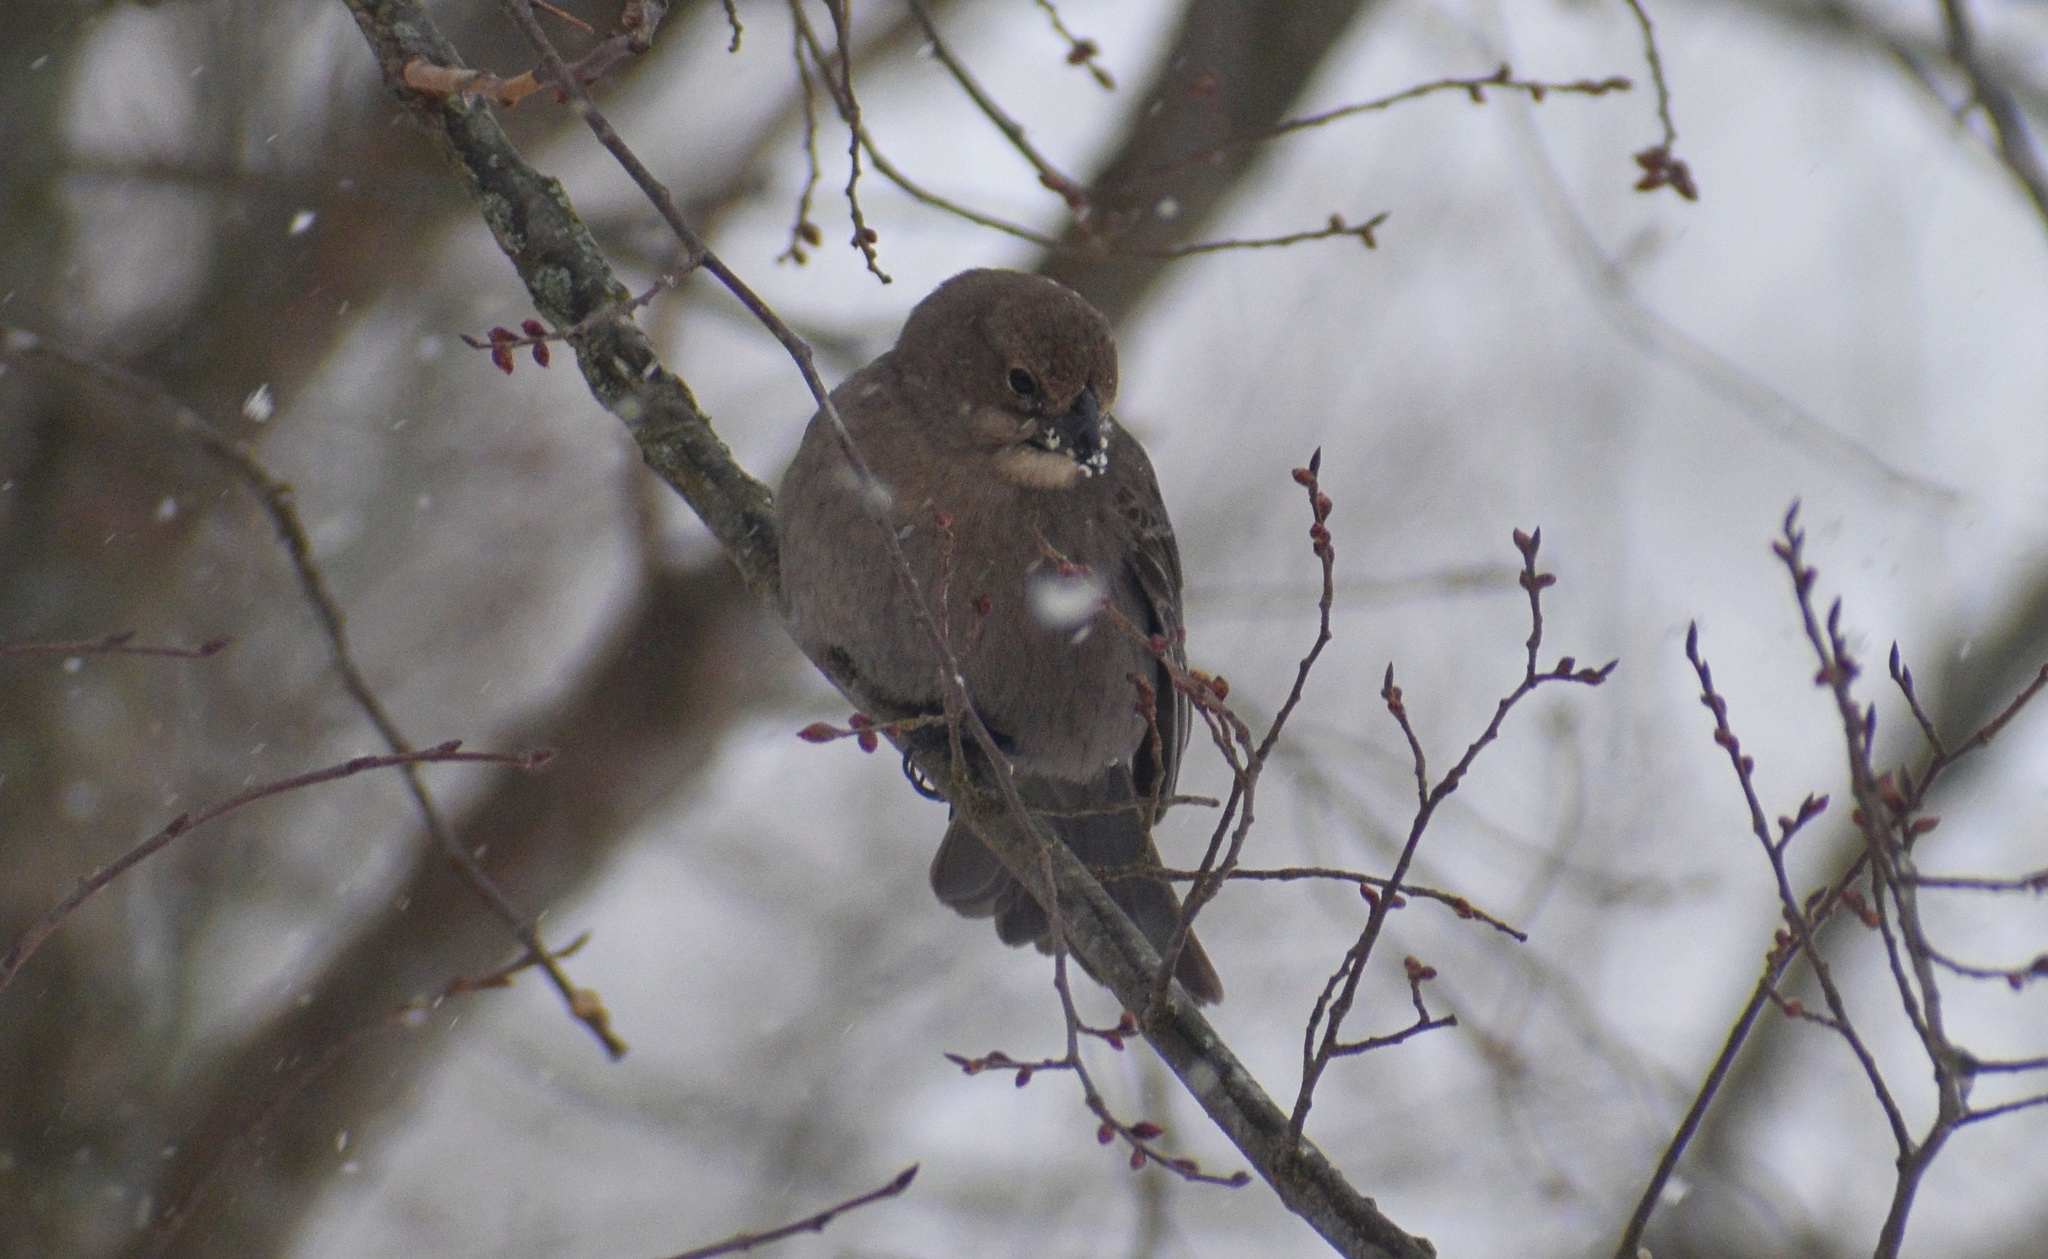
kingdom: Animalia
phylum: Chordata
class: Aves
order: Passeriformes
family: Icteridae
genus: Molothrus
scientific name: Molothrus ater
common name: Brown-headed cowbird
